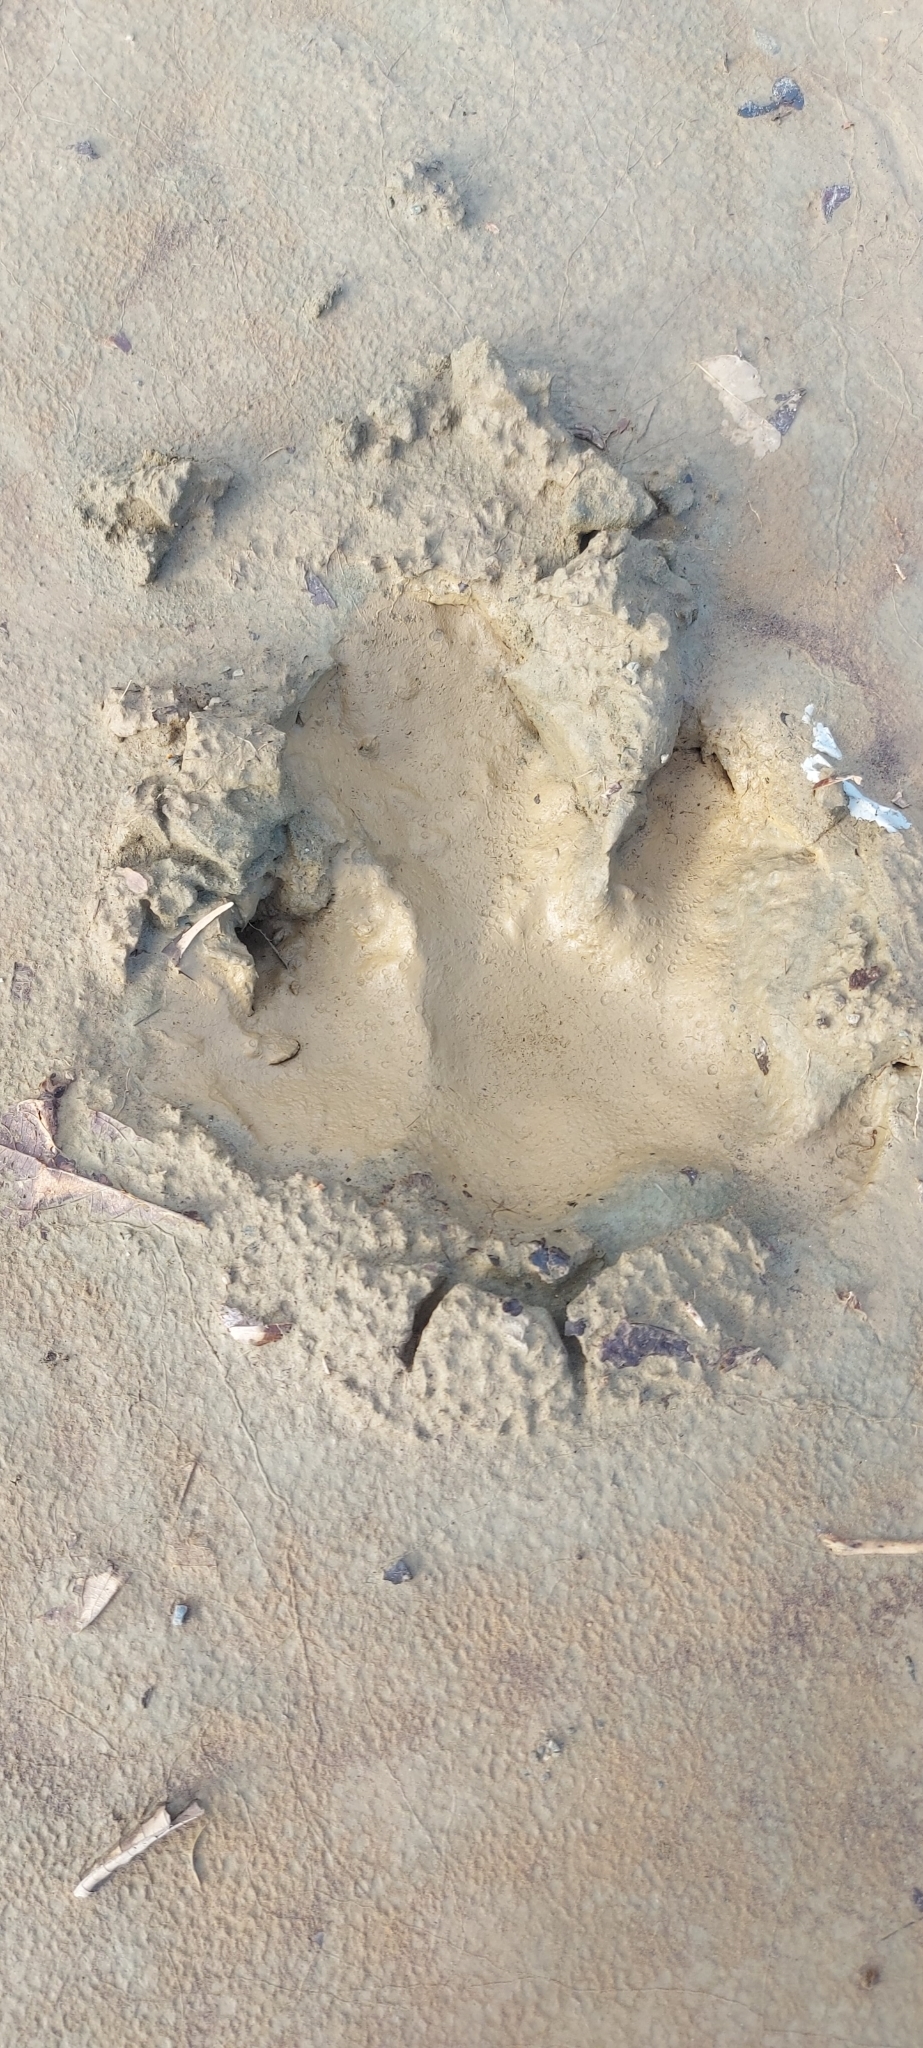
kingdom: Animalia
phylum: Chordata
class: Mammalia
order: Perissodactyla
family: Tapiridae
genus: Tapirella
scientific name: Tapirella bairdii
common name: Baird's tapir
